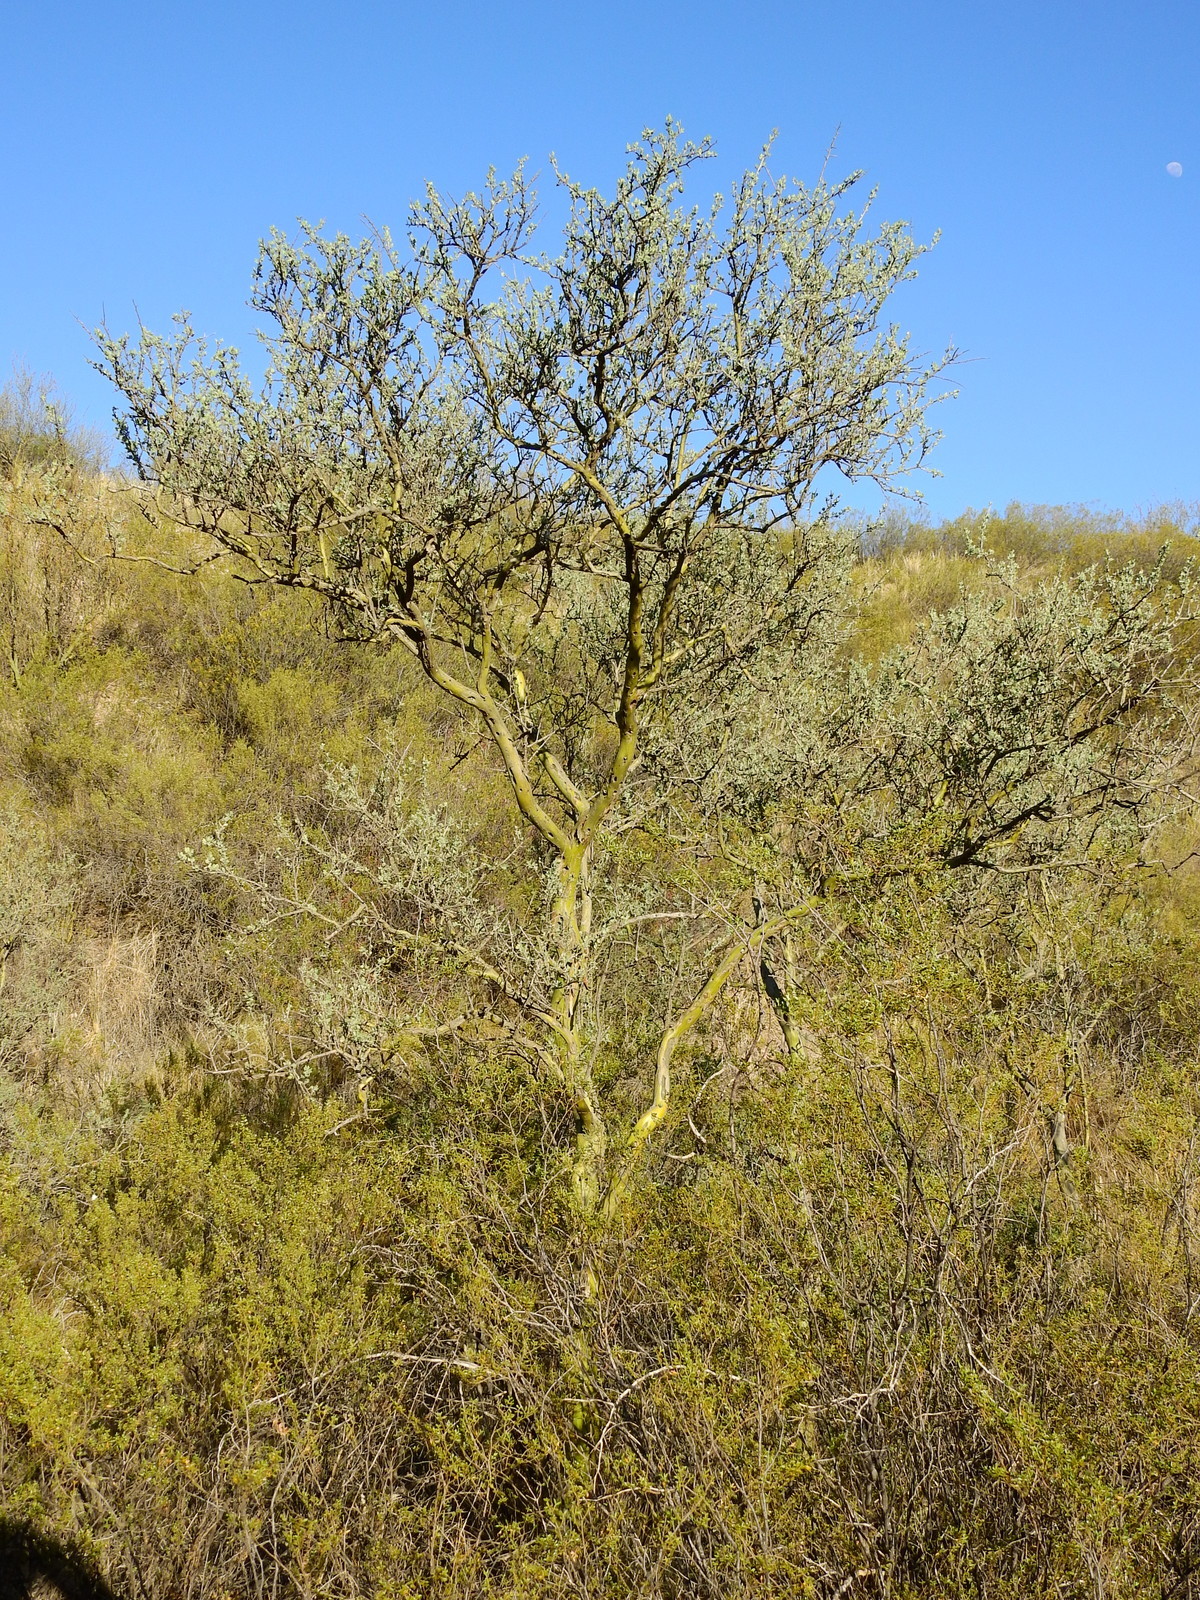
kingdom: Plantae
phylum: Tracheophyta
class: Magnoliopsida
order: Fabales
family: Fabaceae
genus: Geoffroea
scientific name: Geoffroea decorticans
